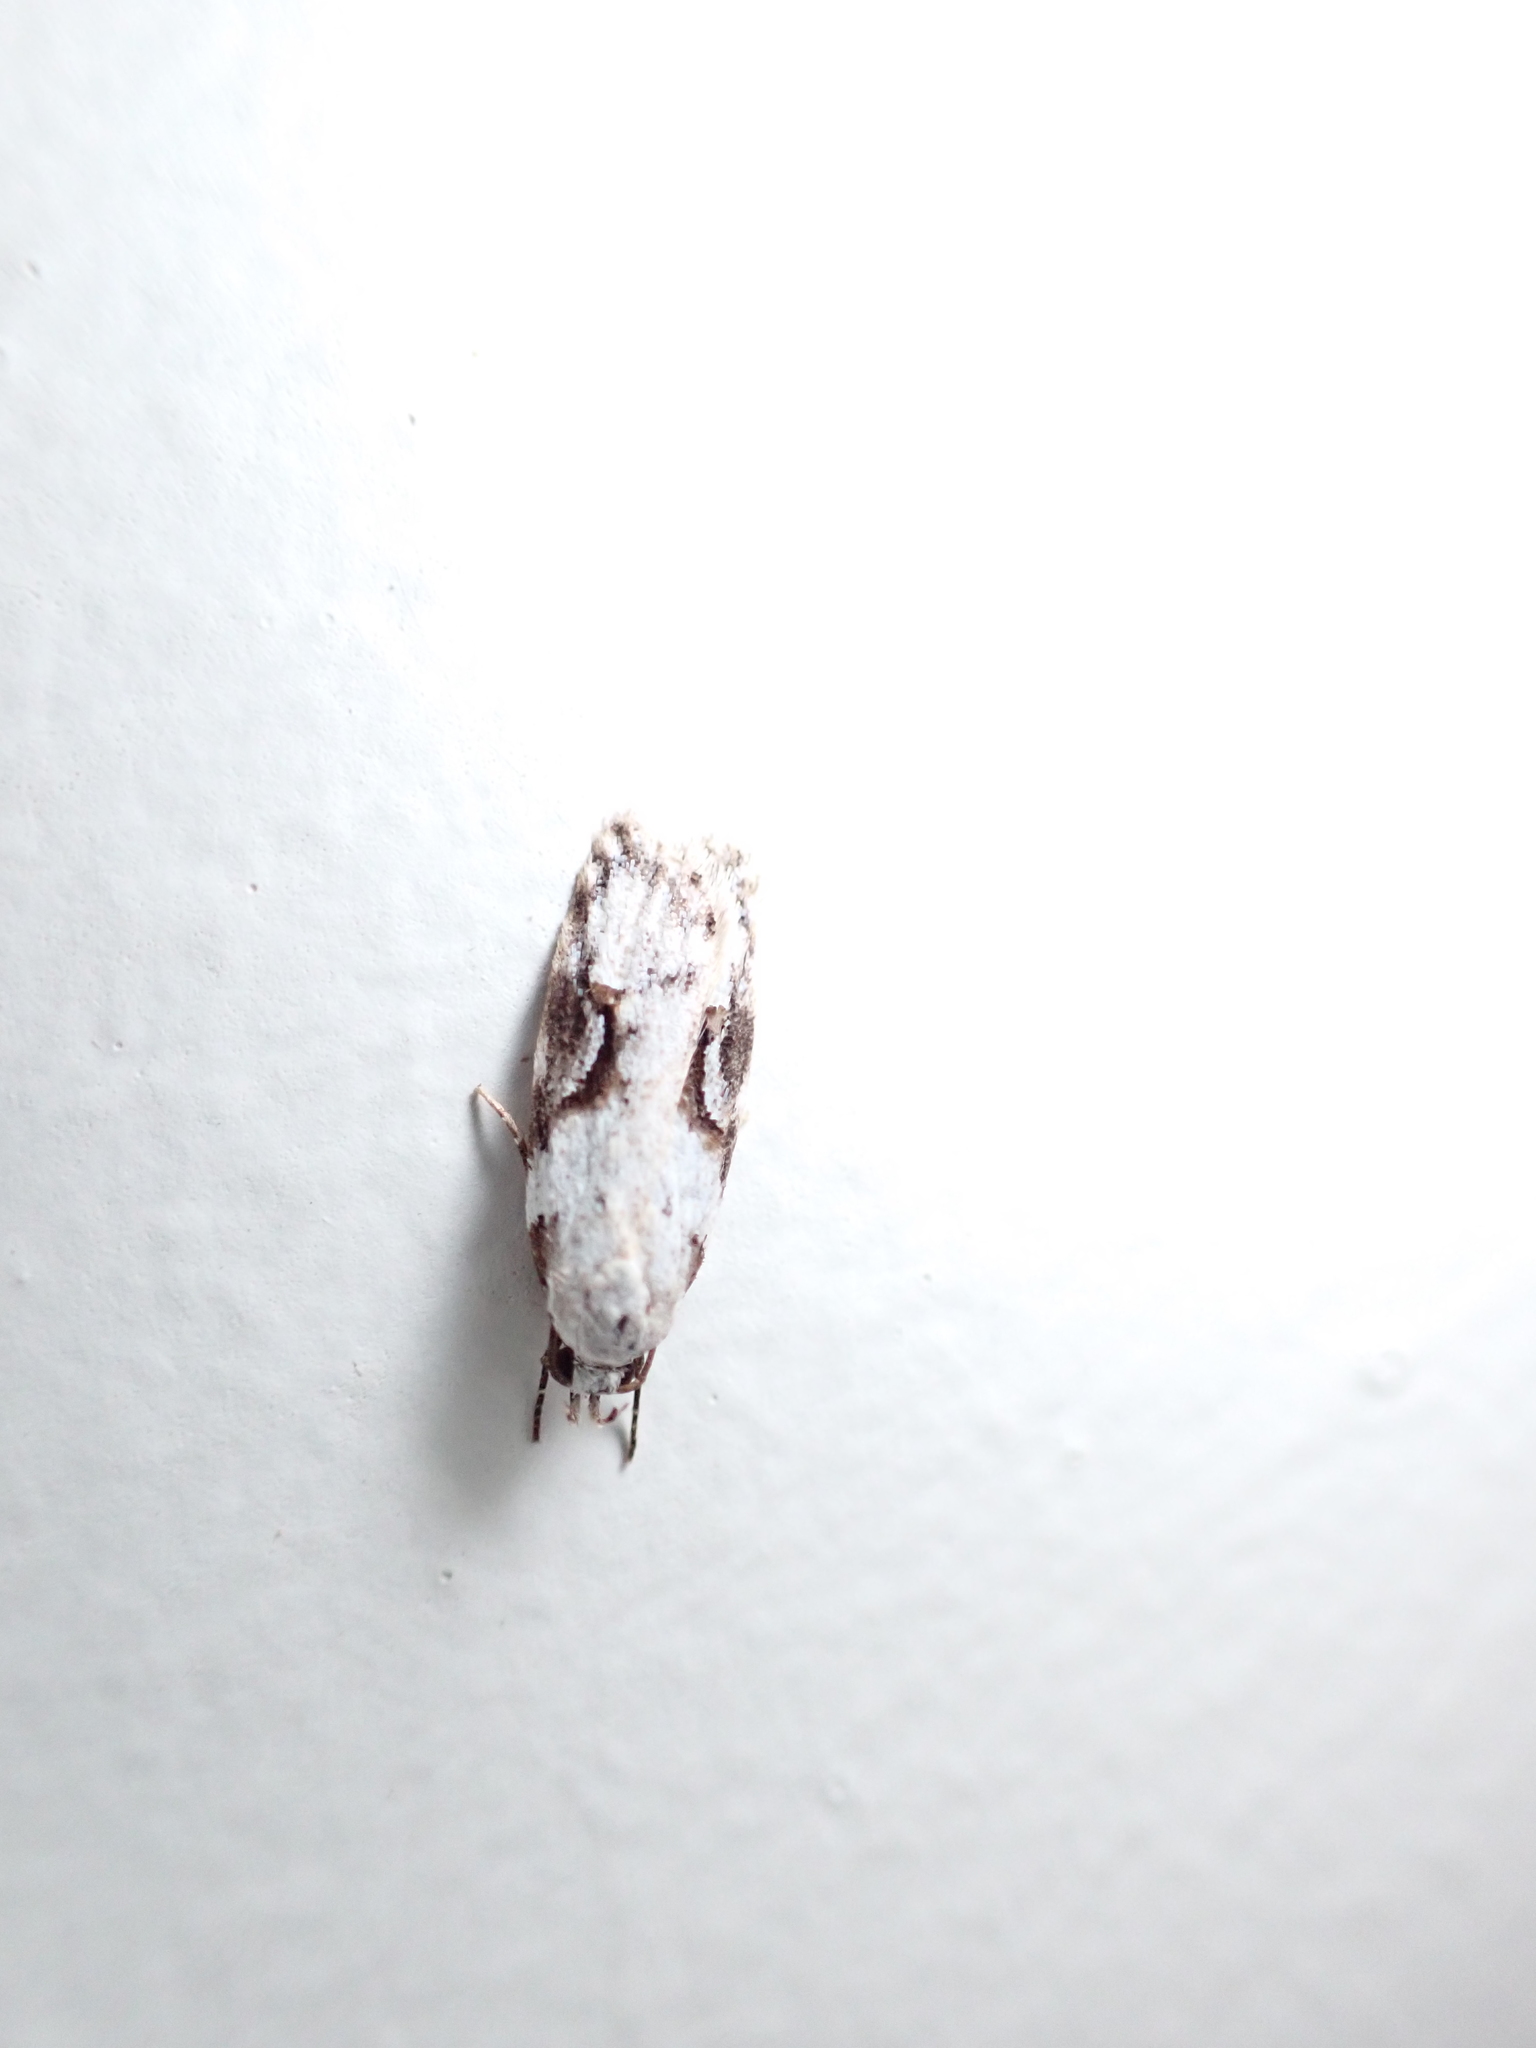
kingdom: Animalia
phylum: Arthropoda
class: Insecta
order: Lepidoptera
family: Oecophoridae
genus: Izatha
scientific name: Izatha mesoschista
